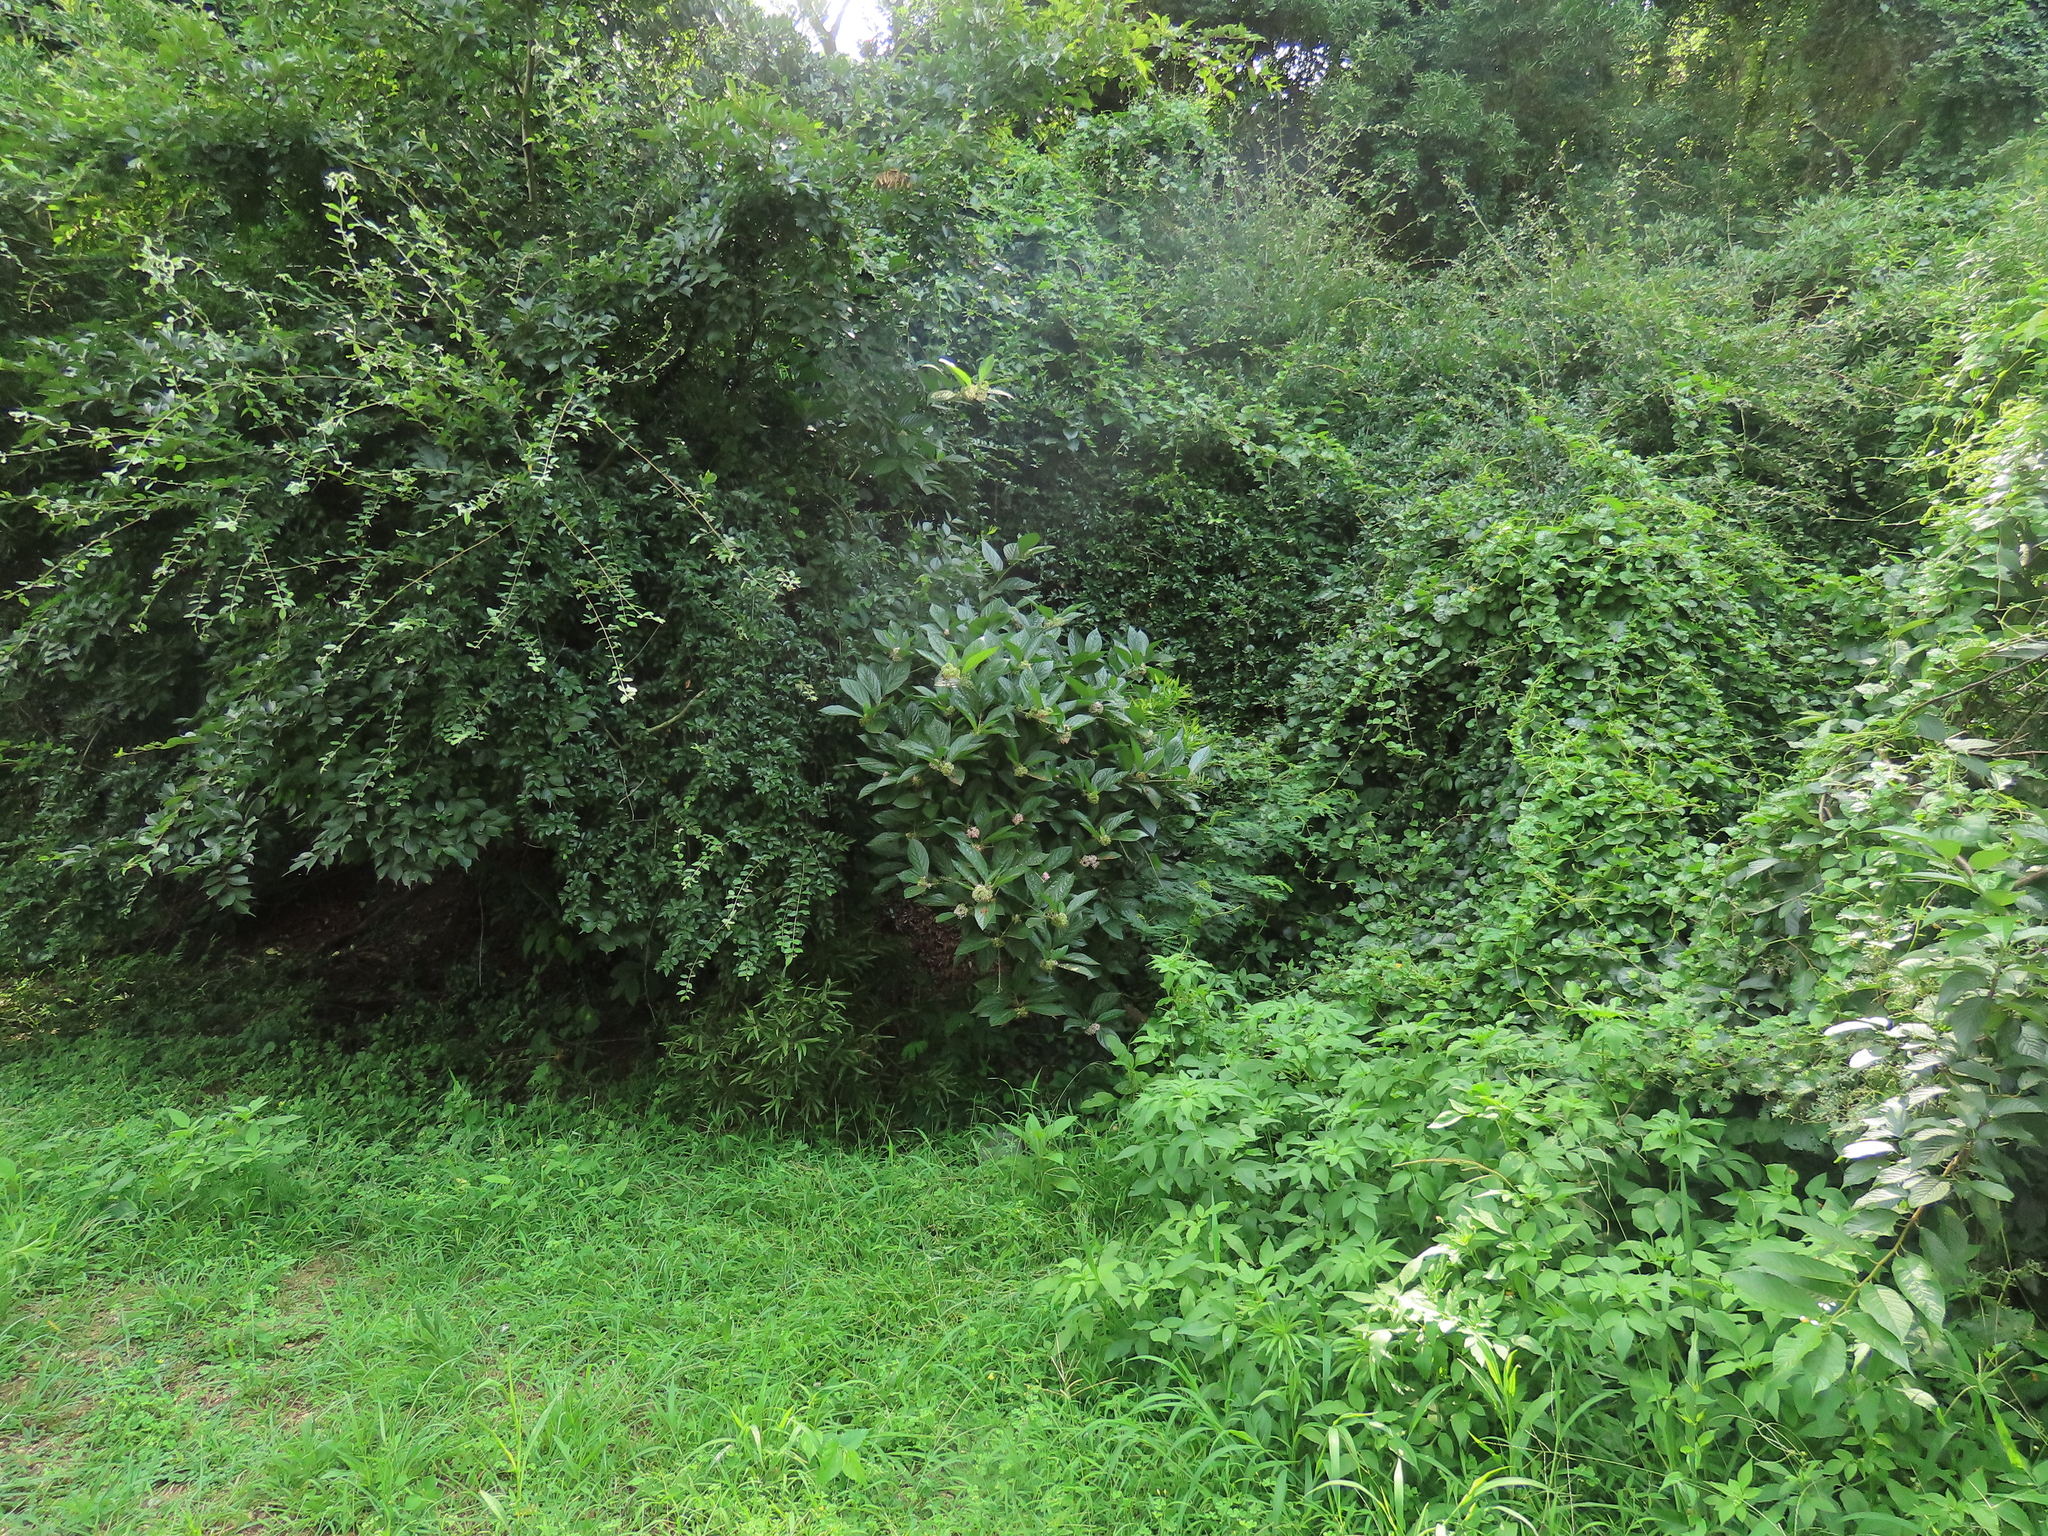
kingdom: Plantae
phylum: Tracheophyta
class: Magnoliopsida
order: Lamiales
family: Lamiaceae
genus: Callicarpa
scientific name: Callicarpa japonica
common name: Japanese beauty-berry
